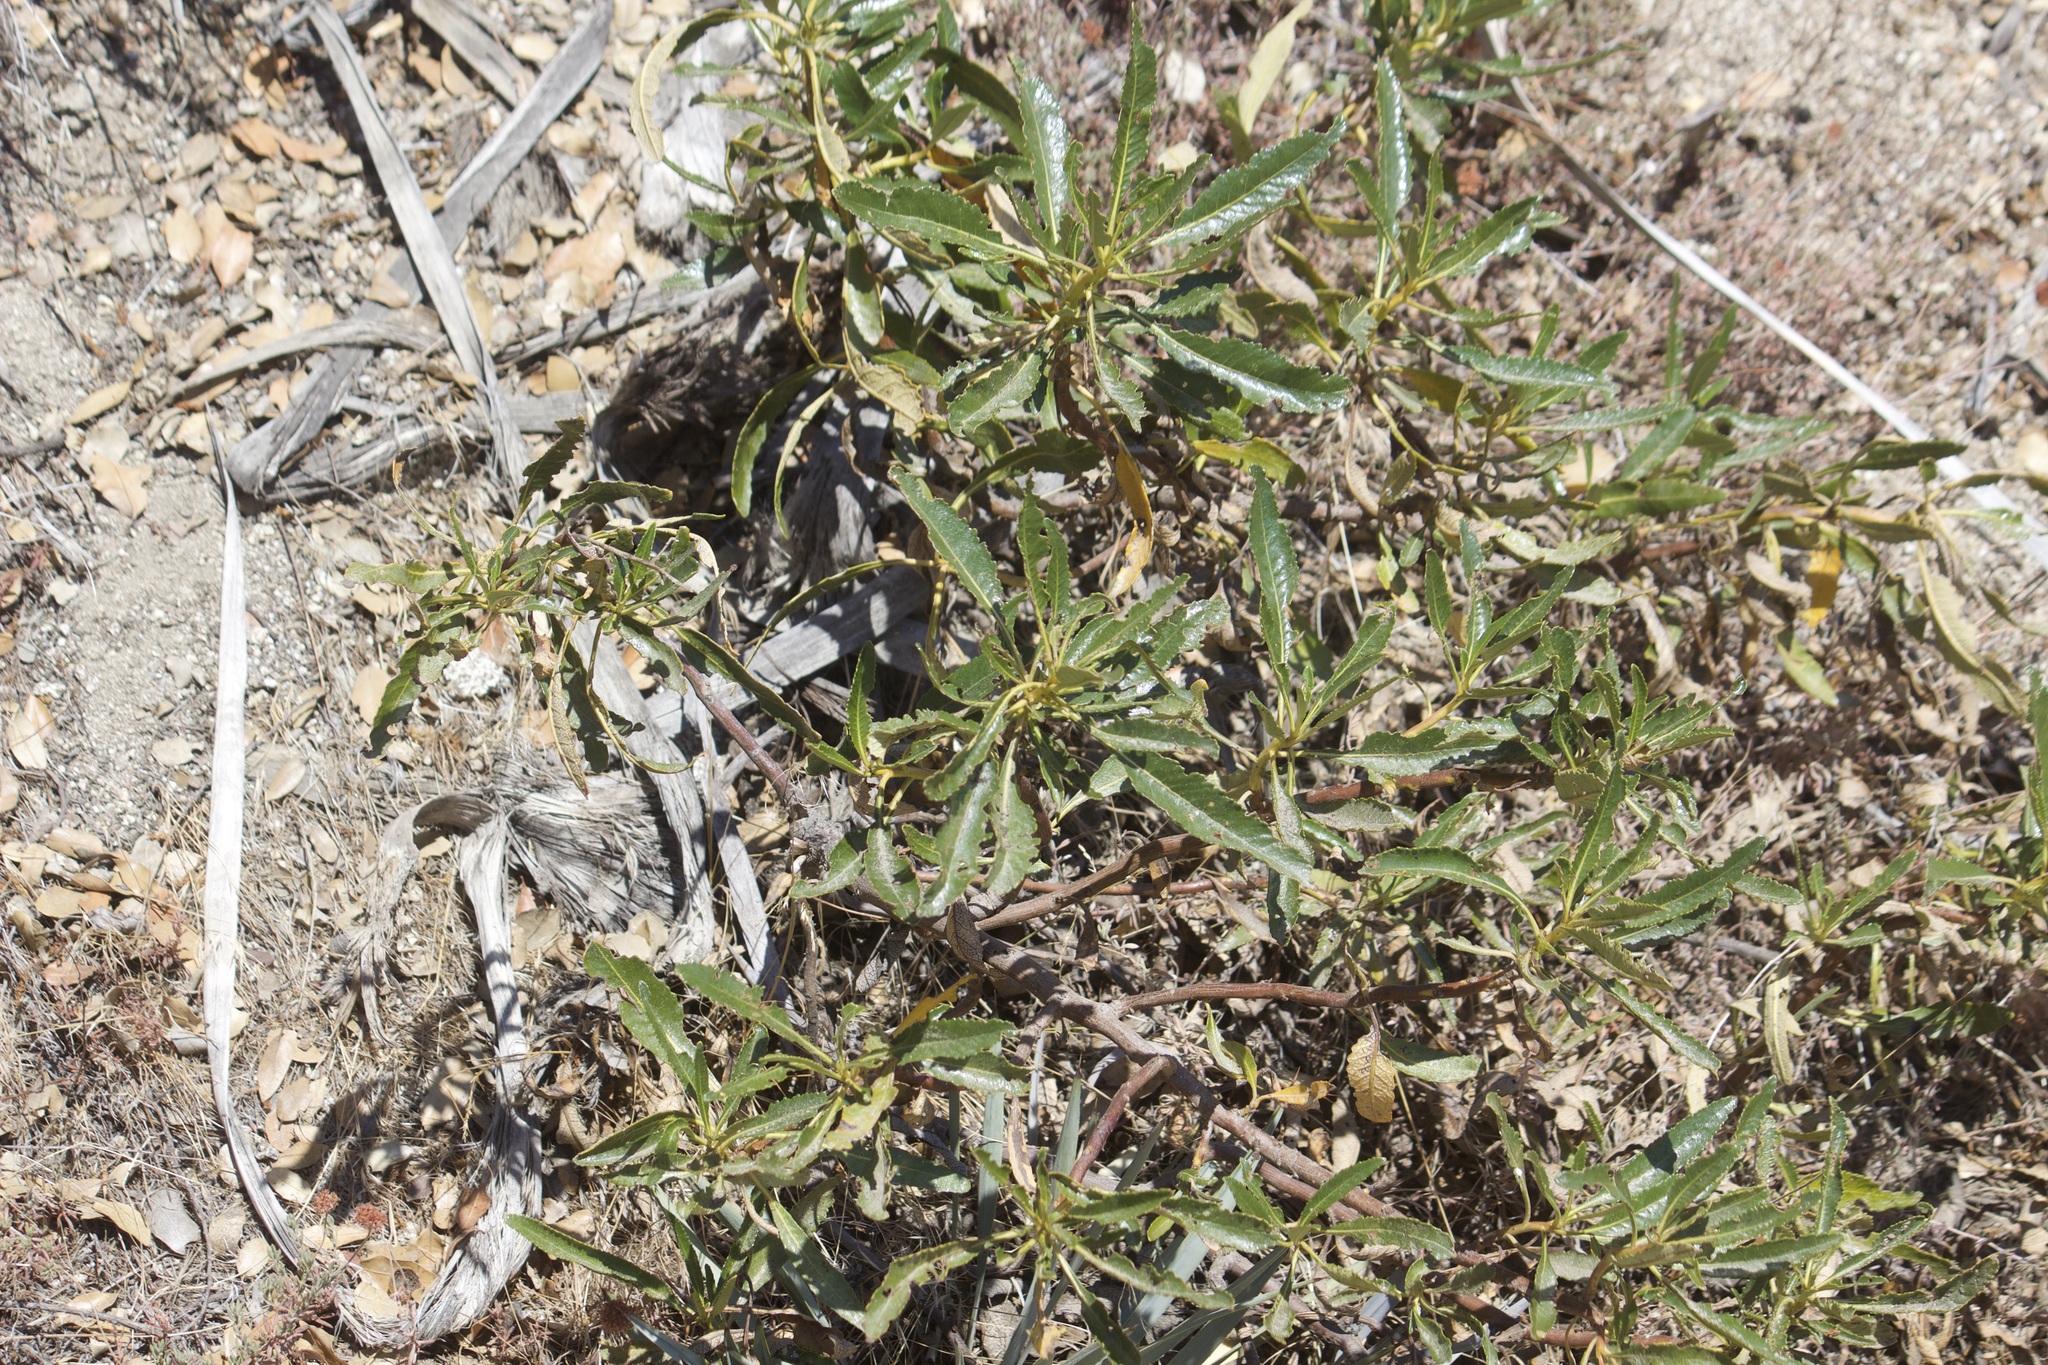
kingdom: Plantae
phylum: Tracheophyta
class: Magnoliopsida
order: Boraginales
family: Namaceae
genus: Eriodictyon
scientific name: Eriodictyon trichocalyx
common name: Hairy yerba-santa
